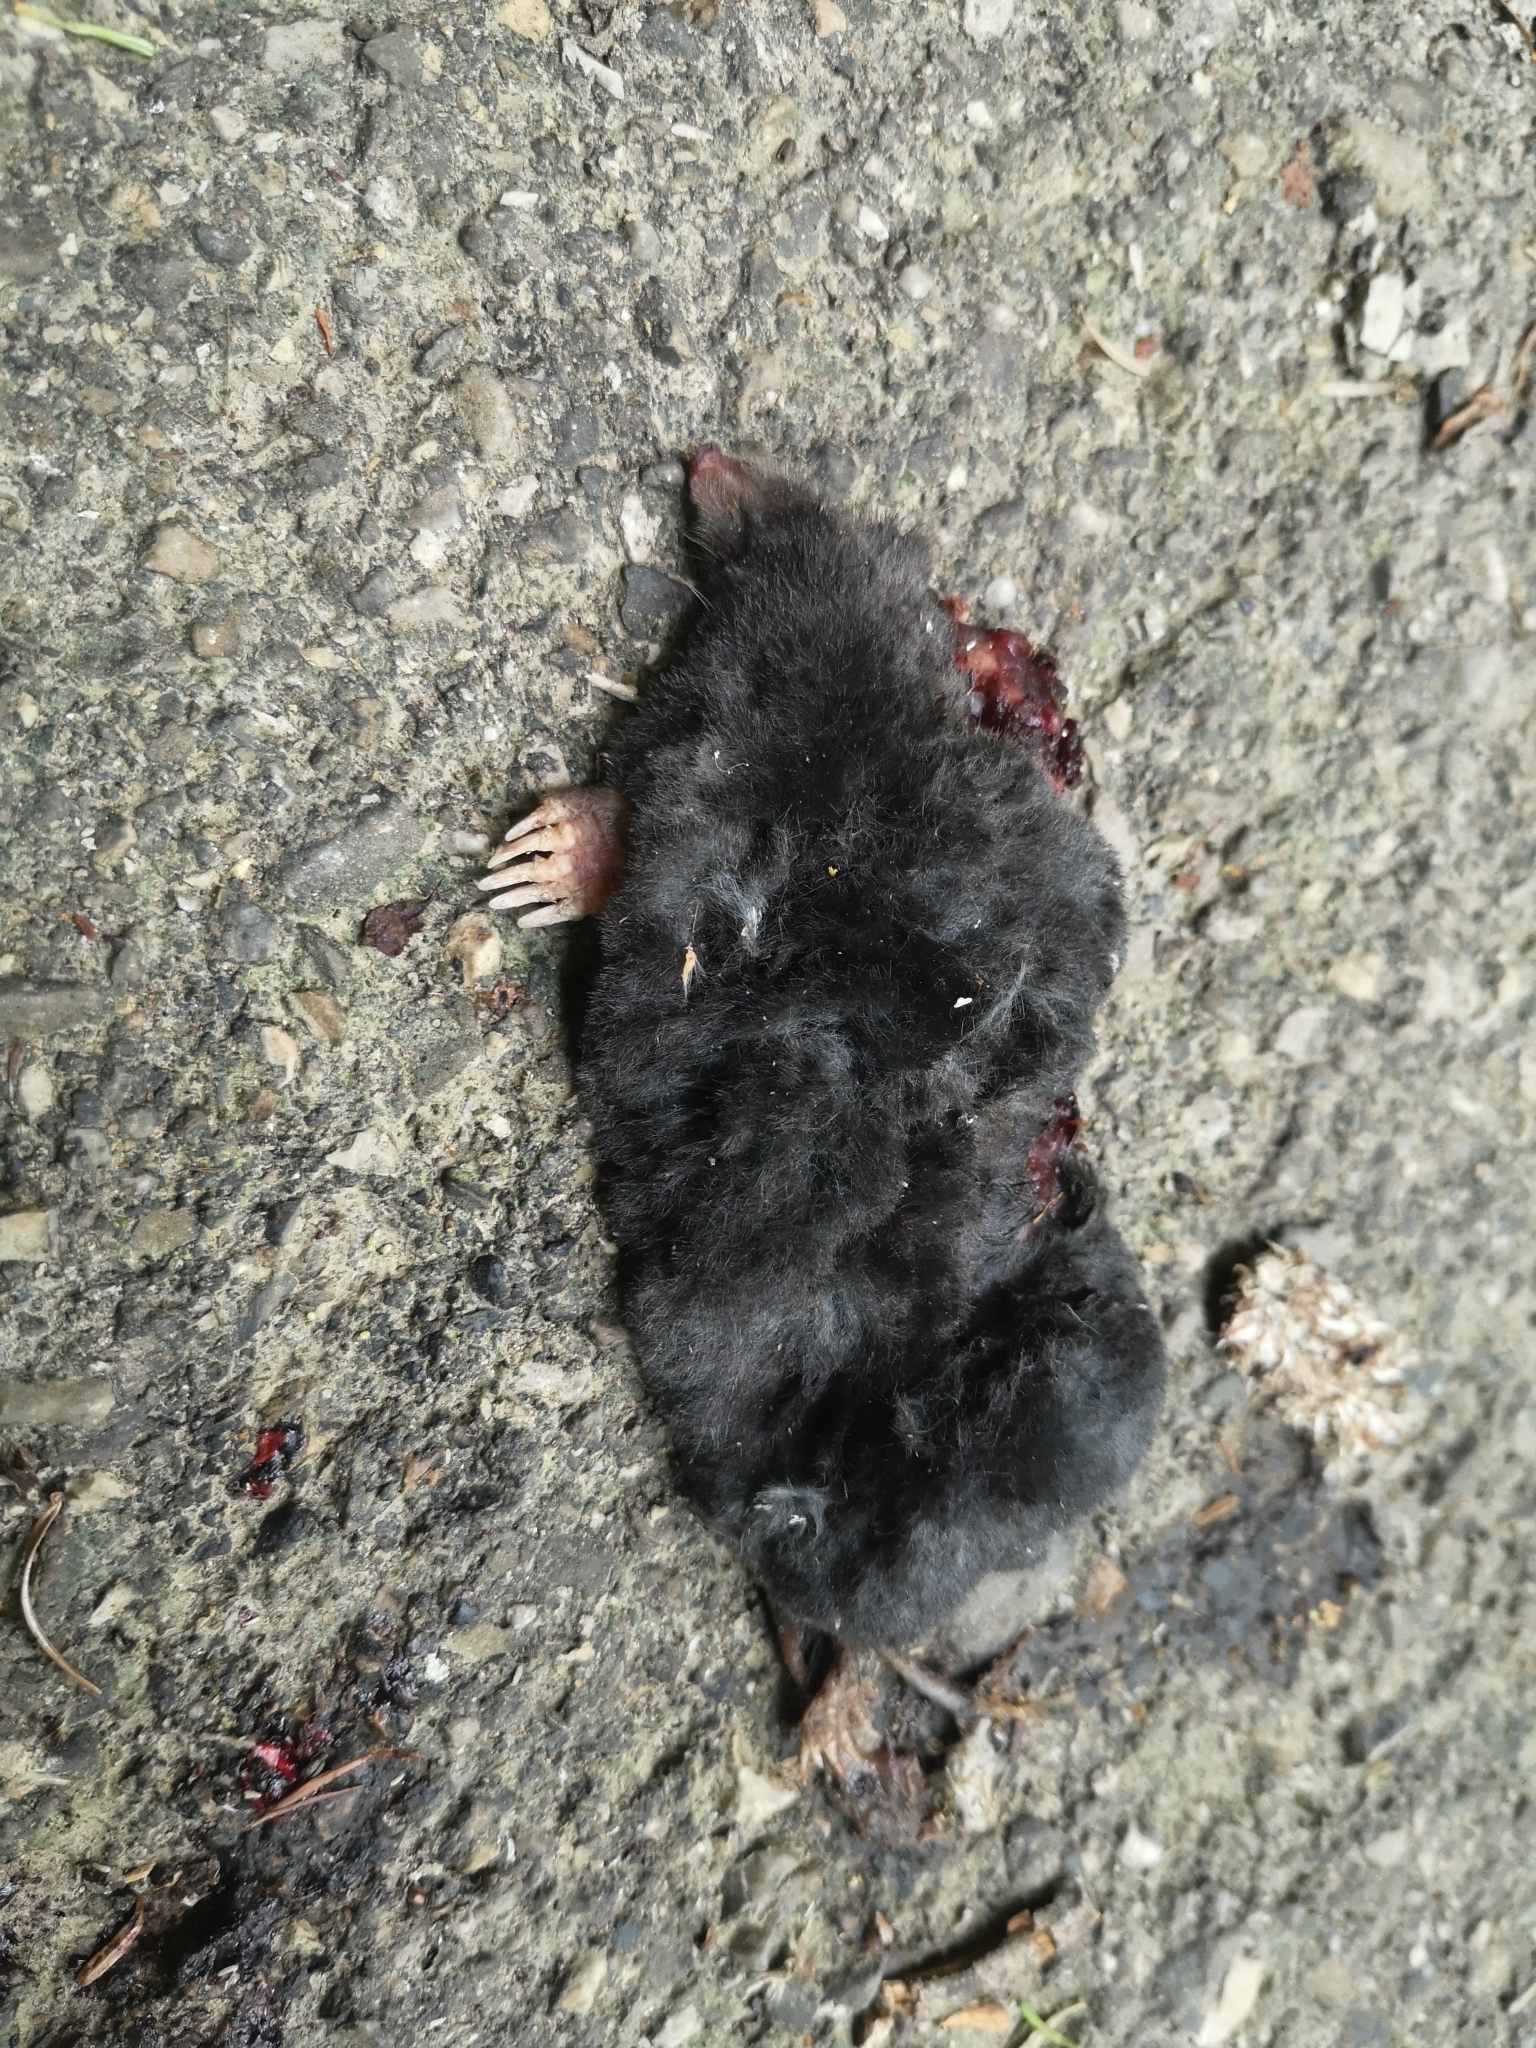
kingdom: Animalia
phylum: Chordata
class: Mammalia
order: Soricomorpha
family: Talpidae
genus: Talpa
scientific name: Talpa
